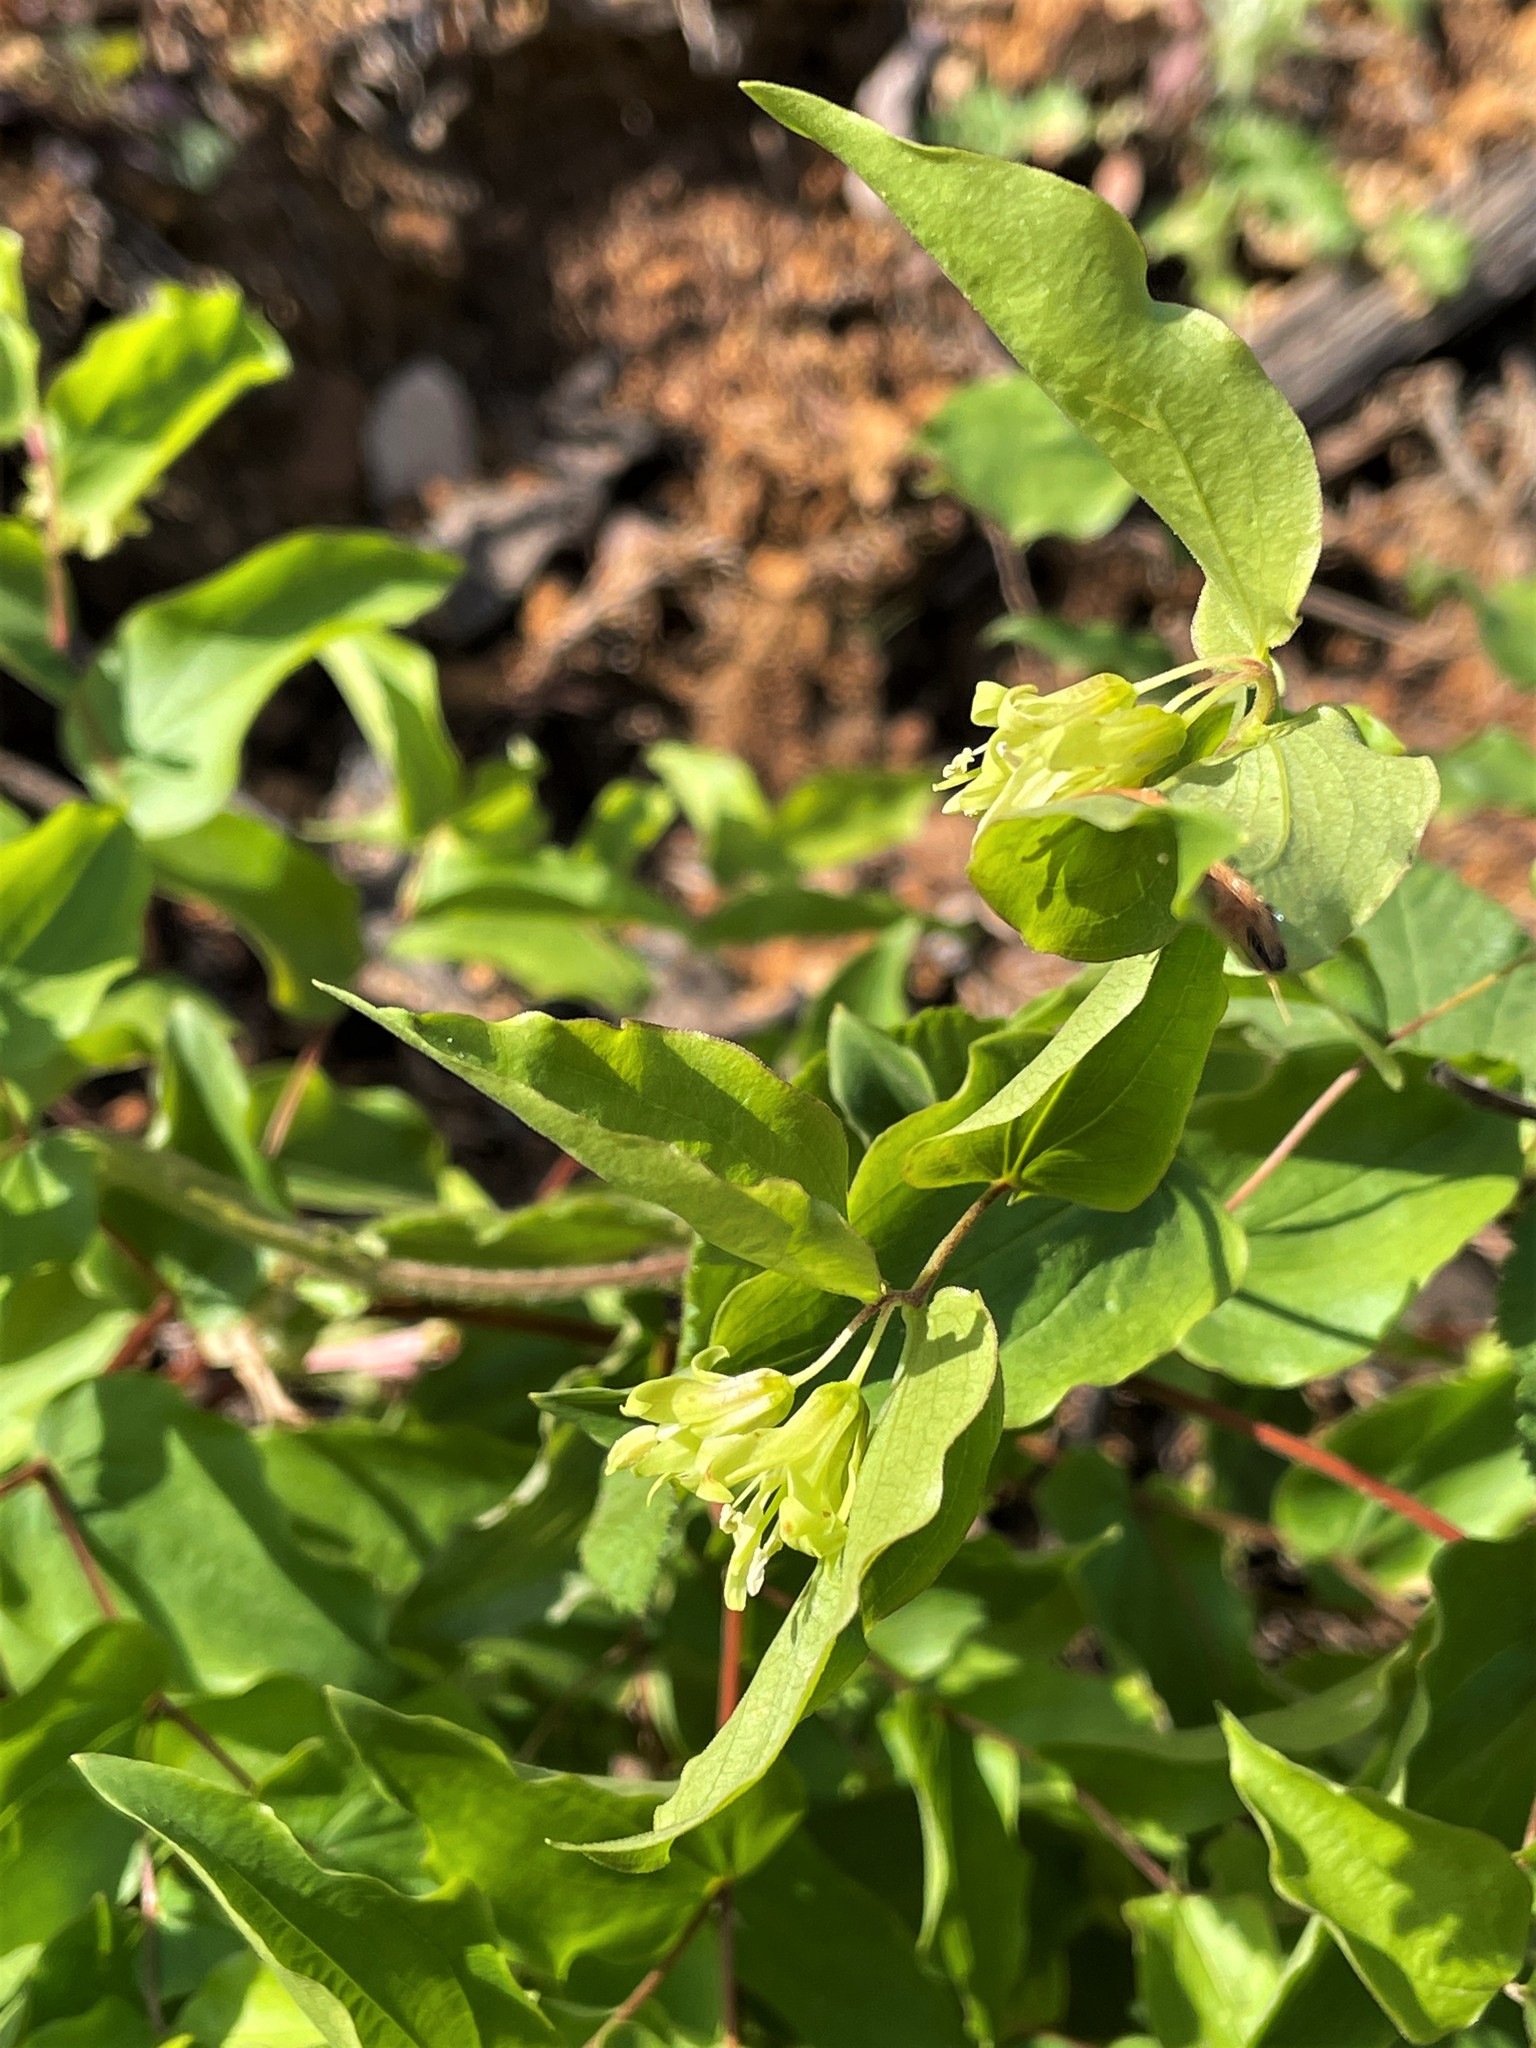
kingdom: Plantae
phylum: Tracheophyta
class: Liliopsida
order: Liliales
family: Liliaceae
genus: Prosartes
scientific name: Prosartes hookeri
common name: Fairy-bells
